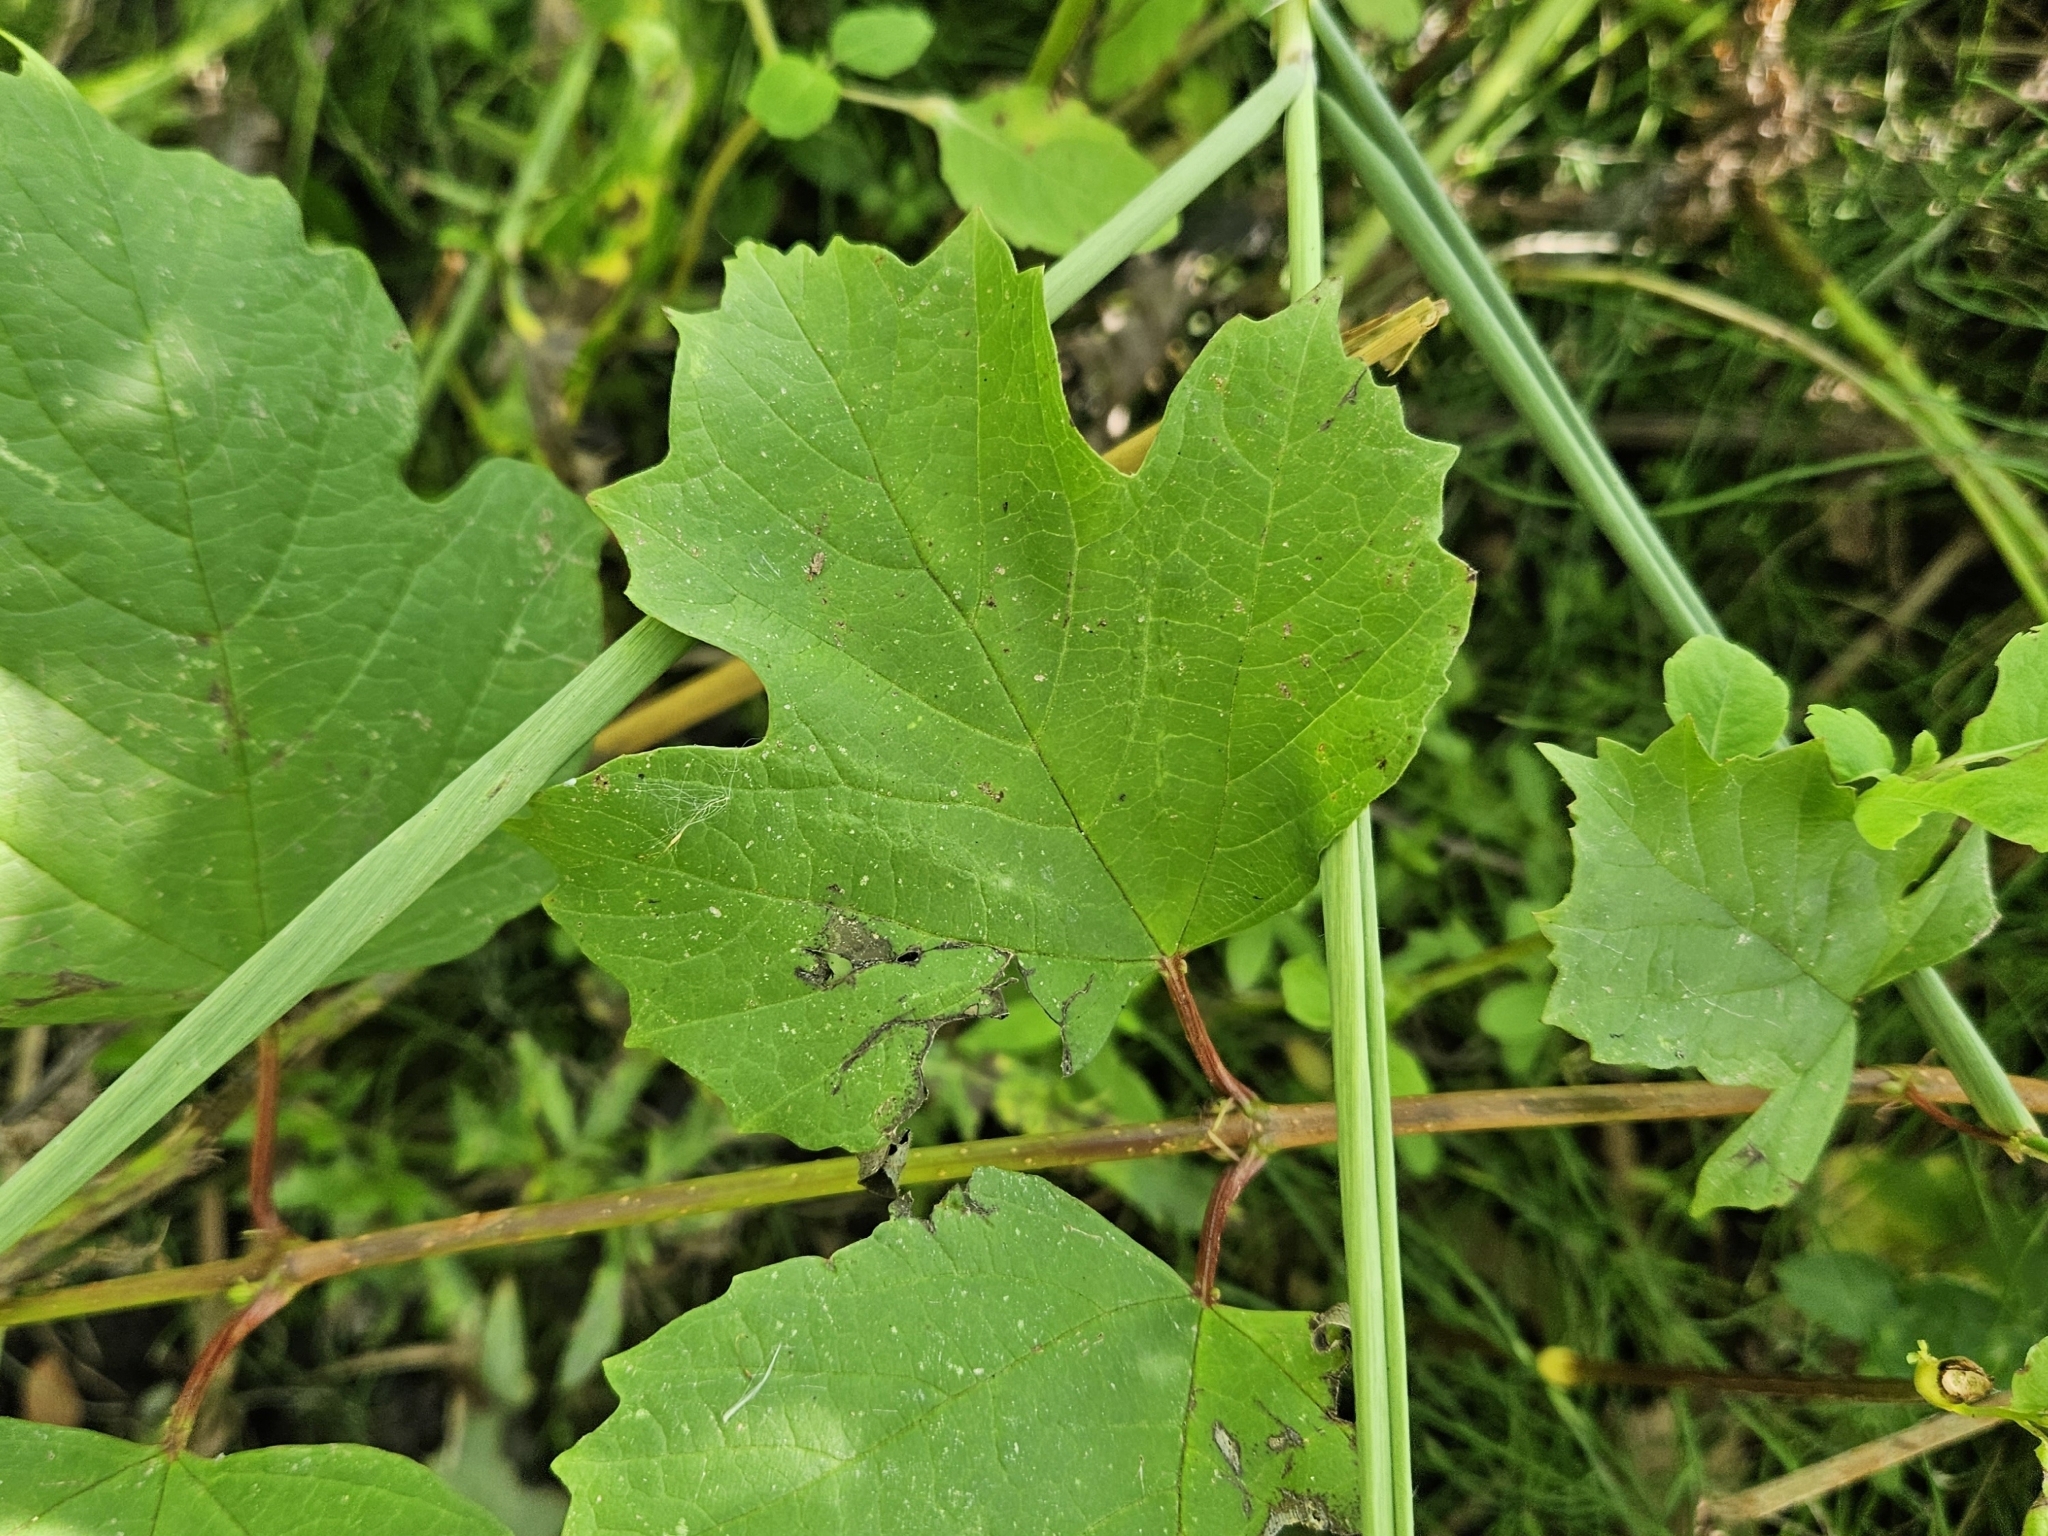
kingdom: Plantae
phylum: Tracheophyta
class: Magnoliopsida
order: Dipsacales
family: Viburnaceae
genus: Viburnum
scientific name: Viburnum opulus
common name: Guelder-rose
